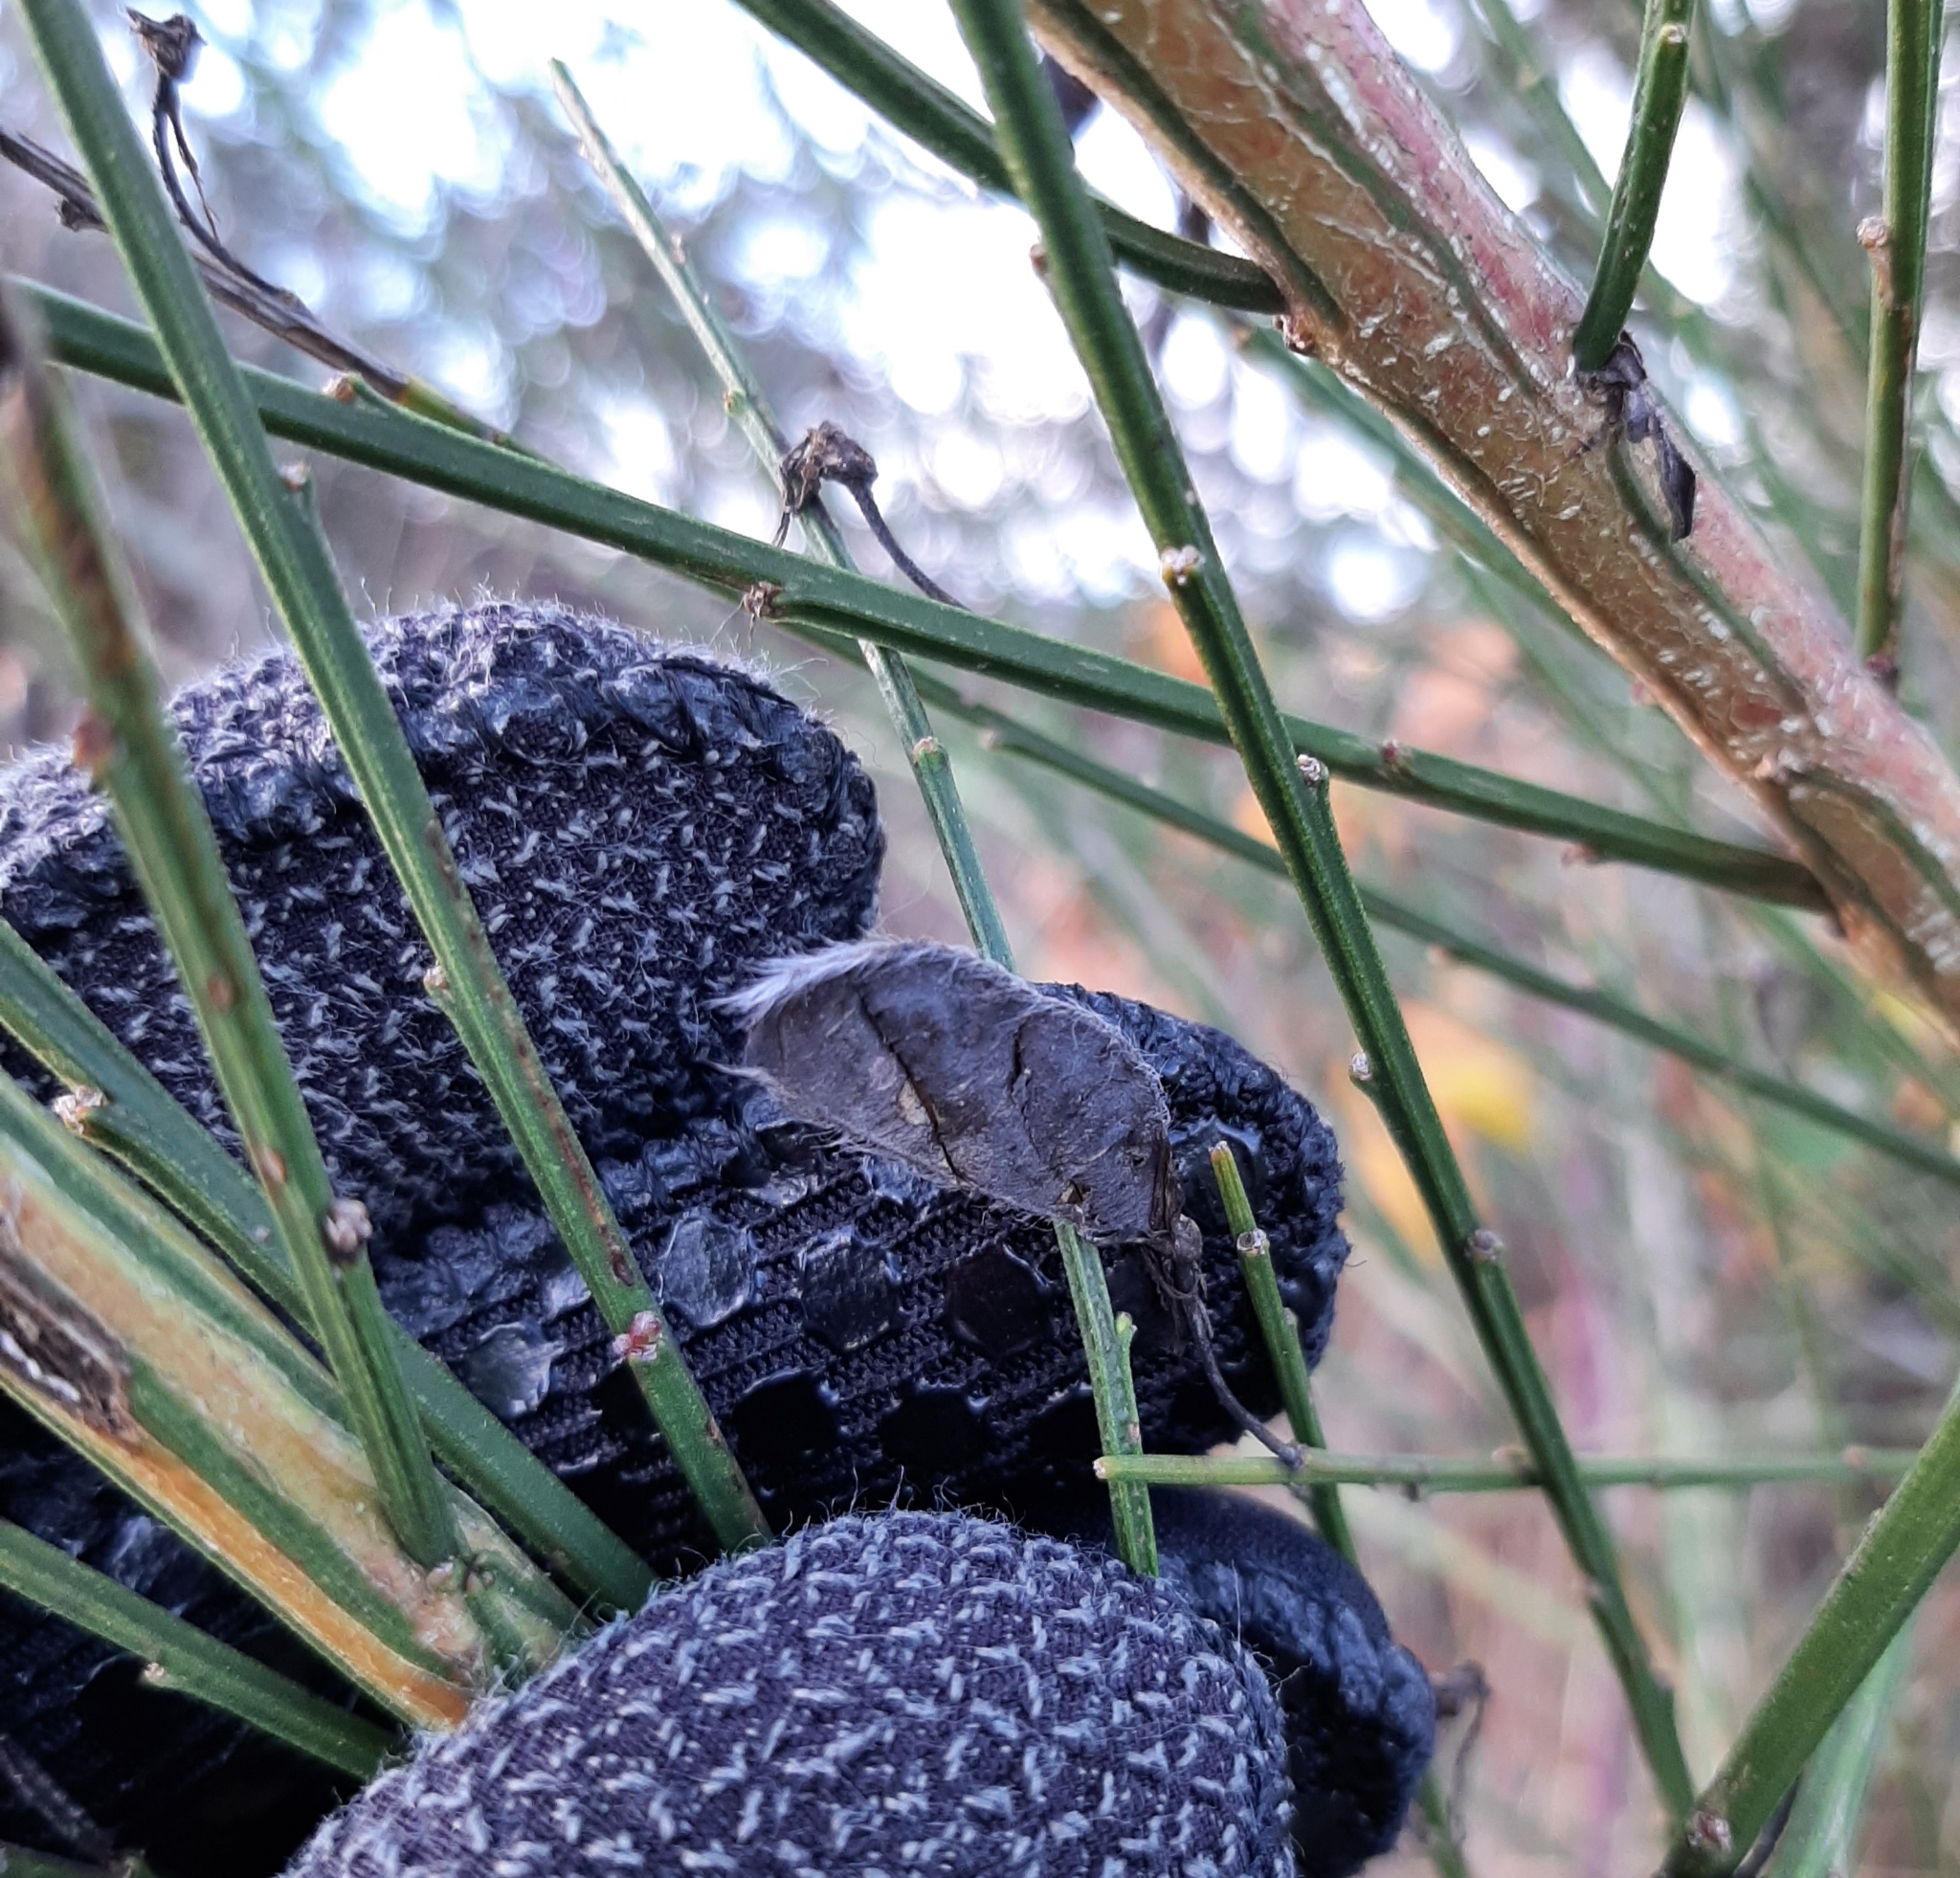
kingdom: Plantae
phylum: Tracheophyta
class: Magnoliopsida
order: Fabales
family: Fabaceae
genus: Cytisus
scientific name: Cytisus scoparius
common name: Scotch broom
